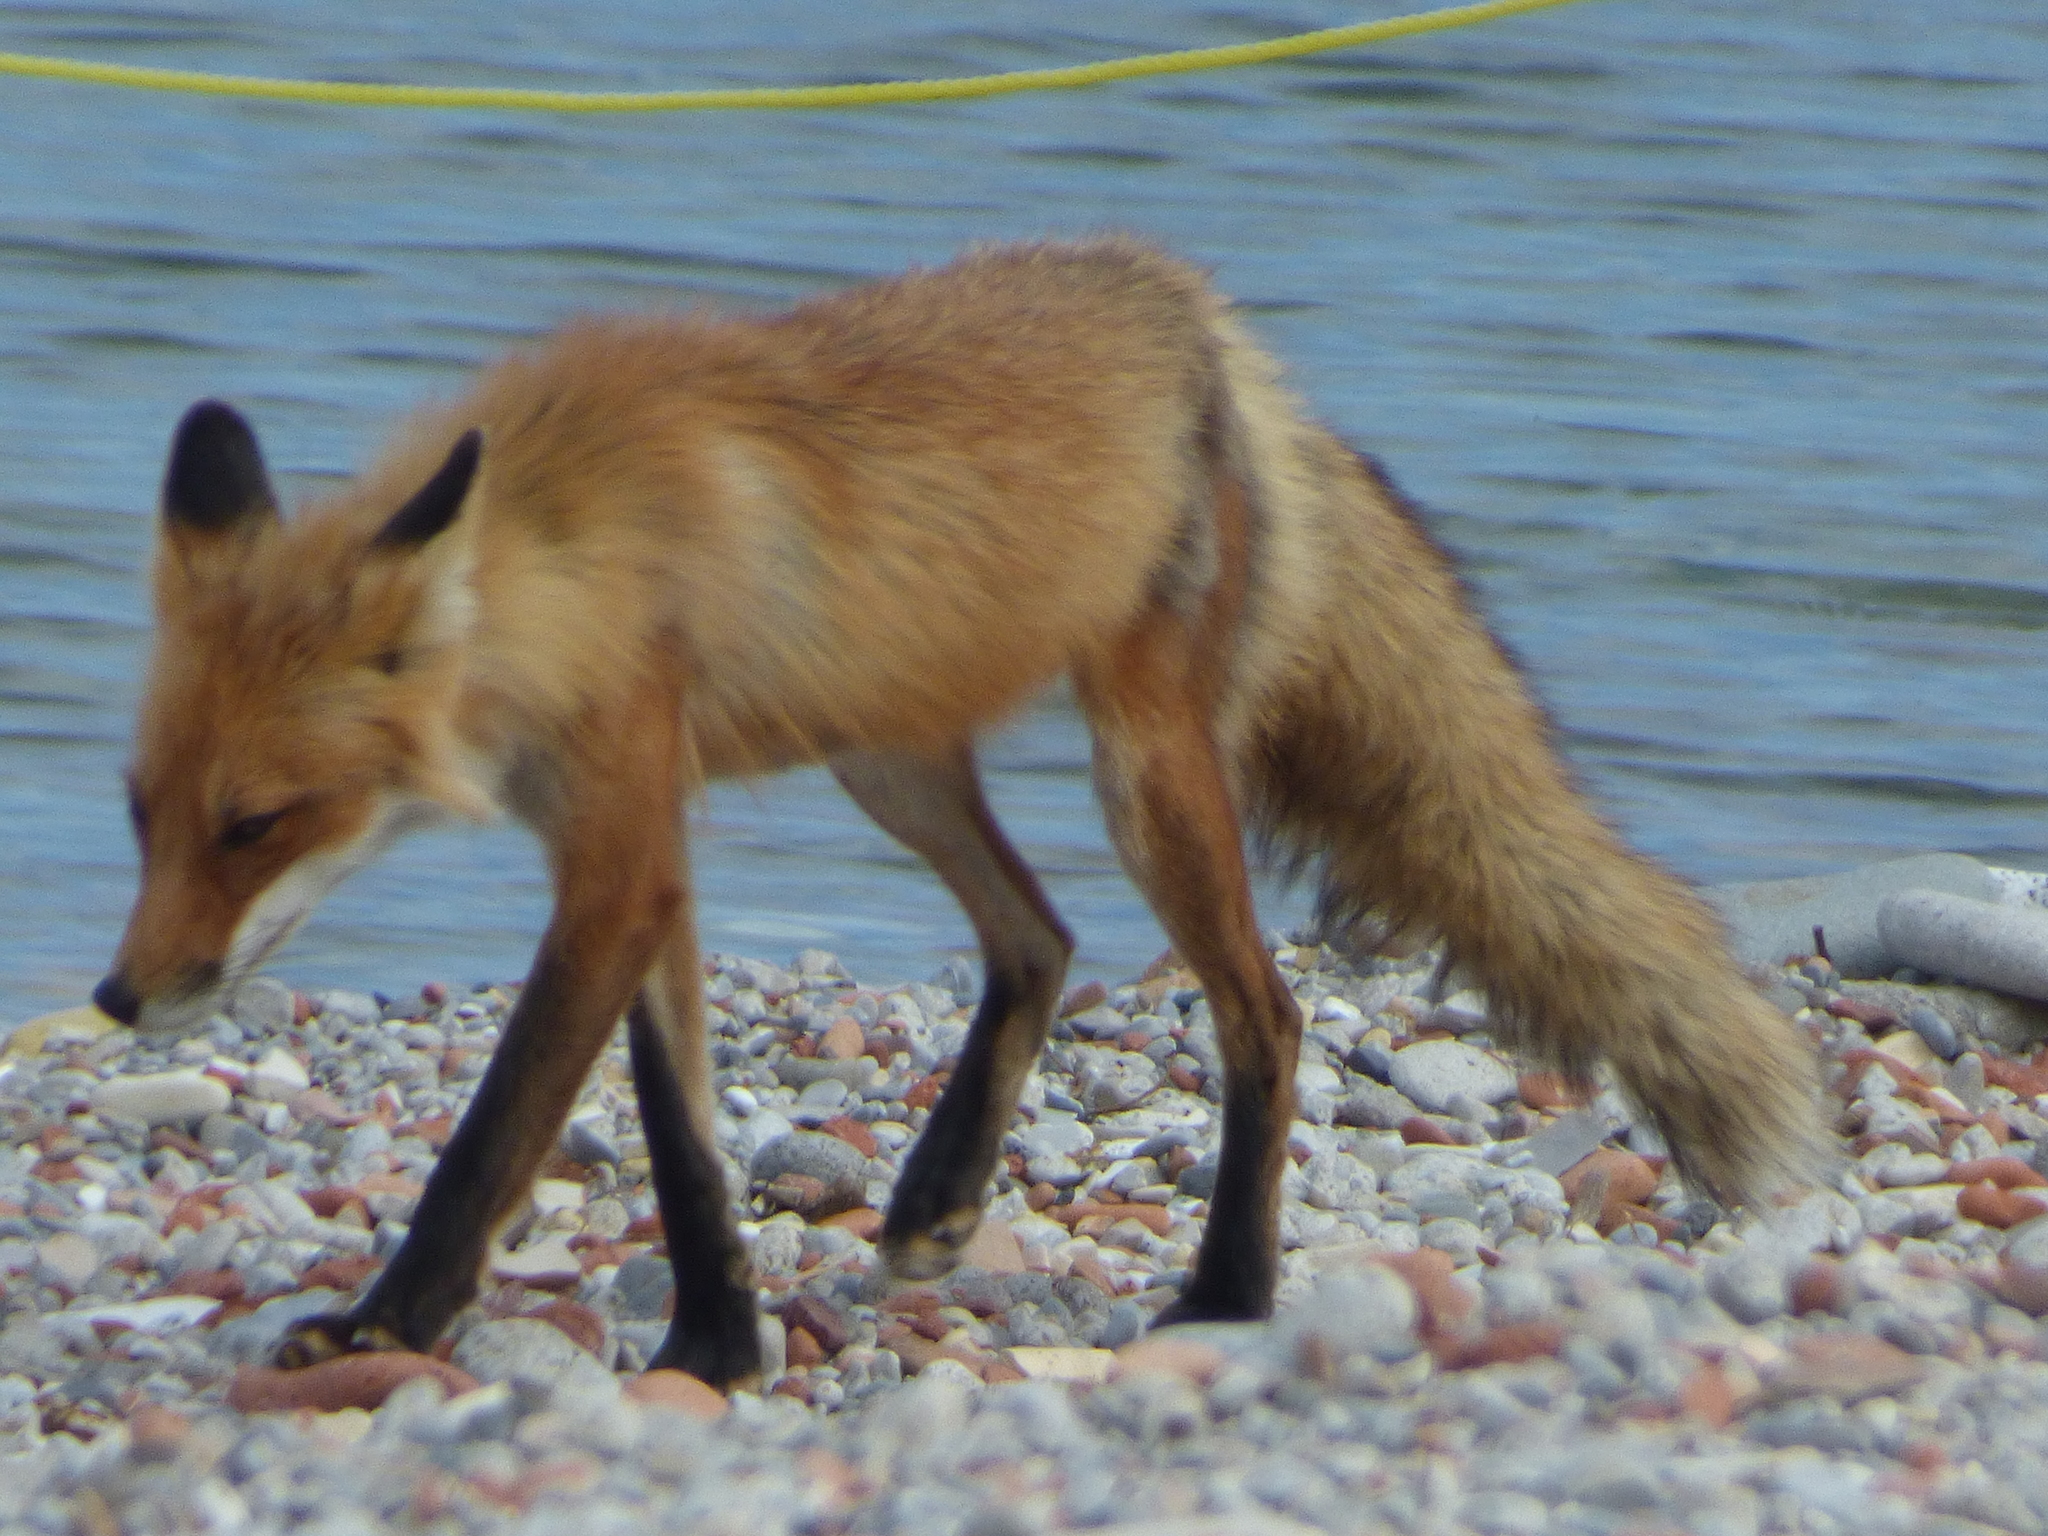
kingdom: Animalia
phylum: Chordata
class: Mammalia
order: Carnivora
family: Canidae
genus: Vulpes
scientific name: Vulpes vulpes
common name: Red fox
